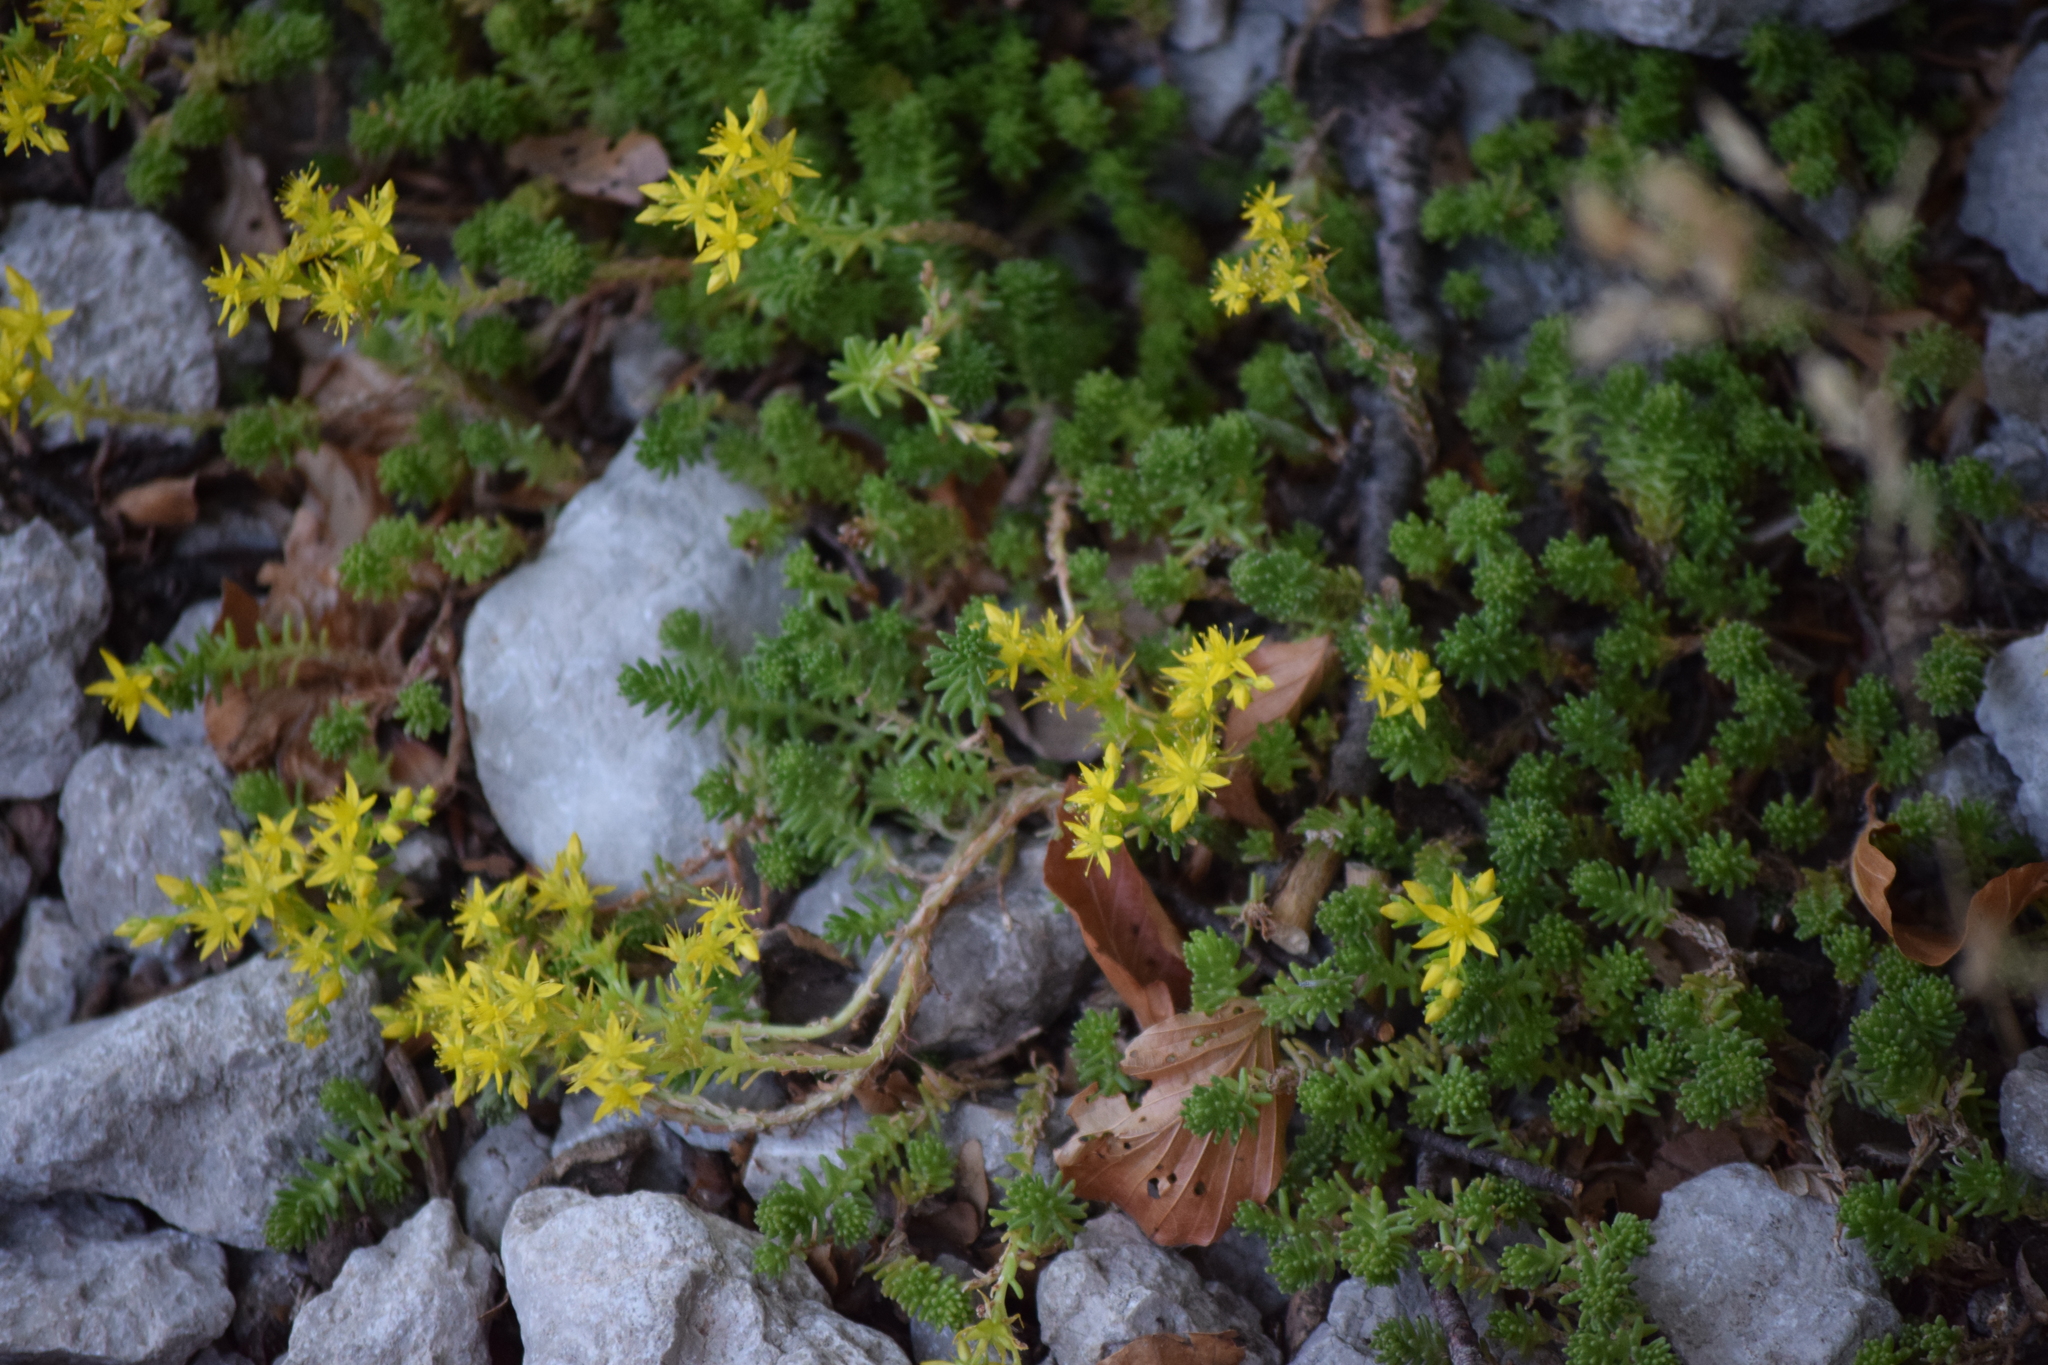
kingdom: Plantae
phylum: Tracheophyta
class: Magnoliopsida
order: Saxifragales
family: Crassulaceae
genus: Sedum
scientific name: Sedum sexangulare
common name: Tasteless stonecrop
